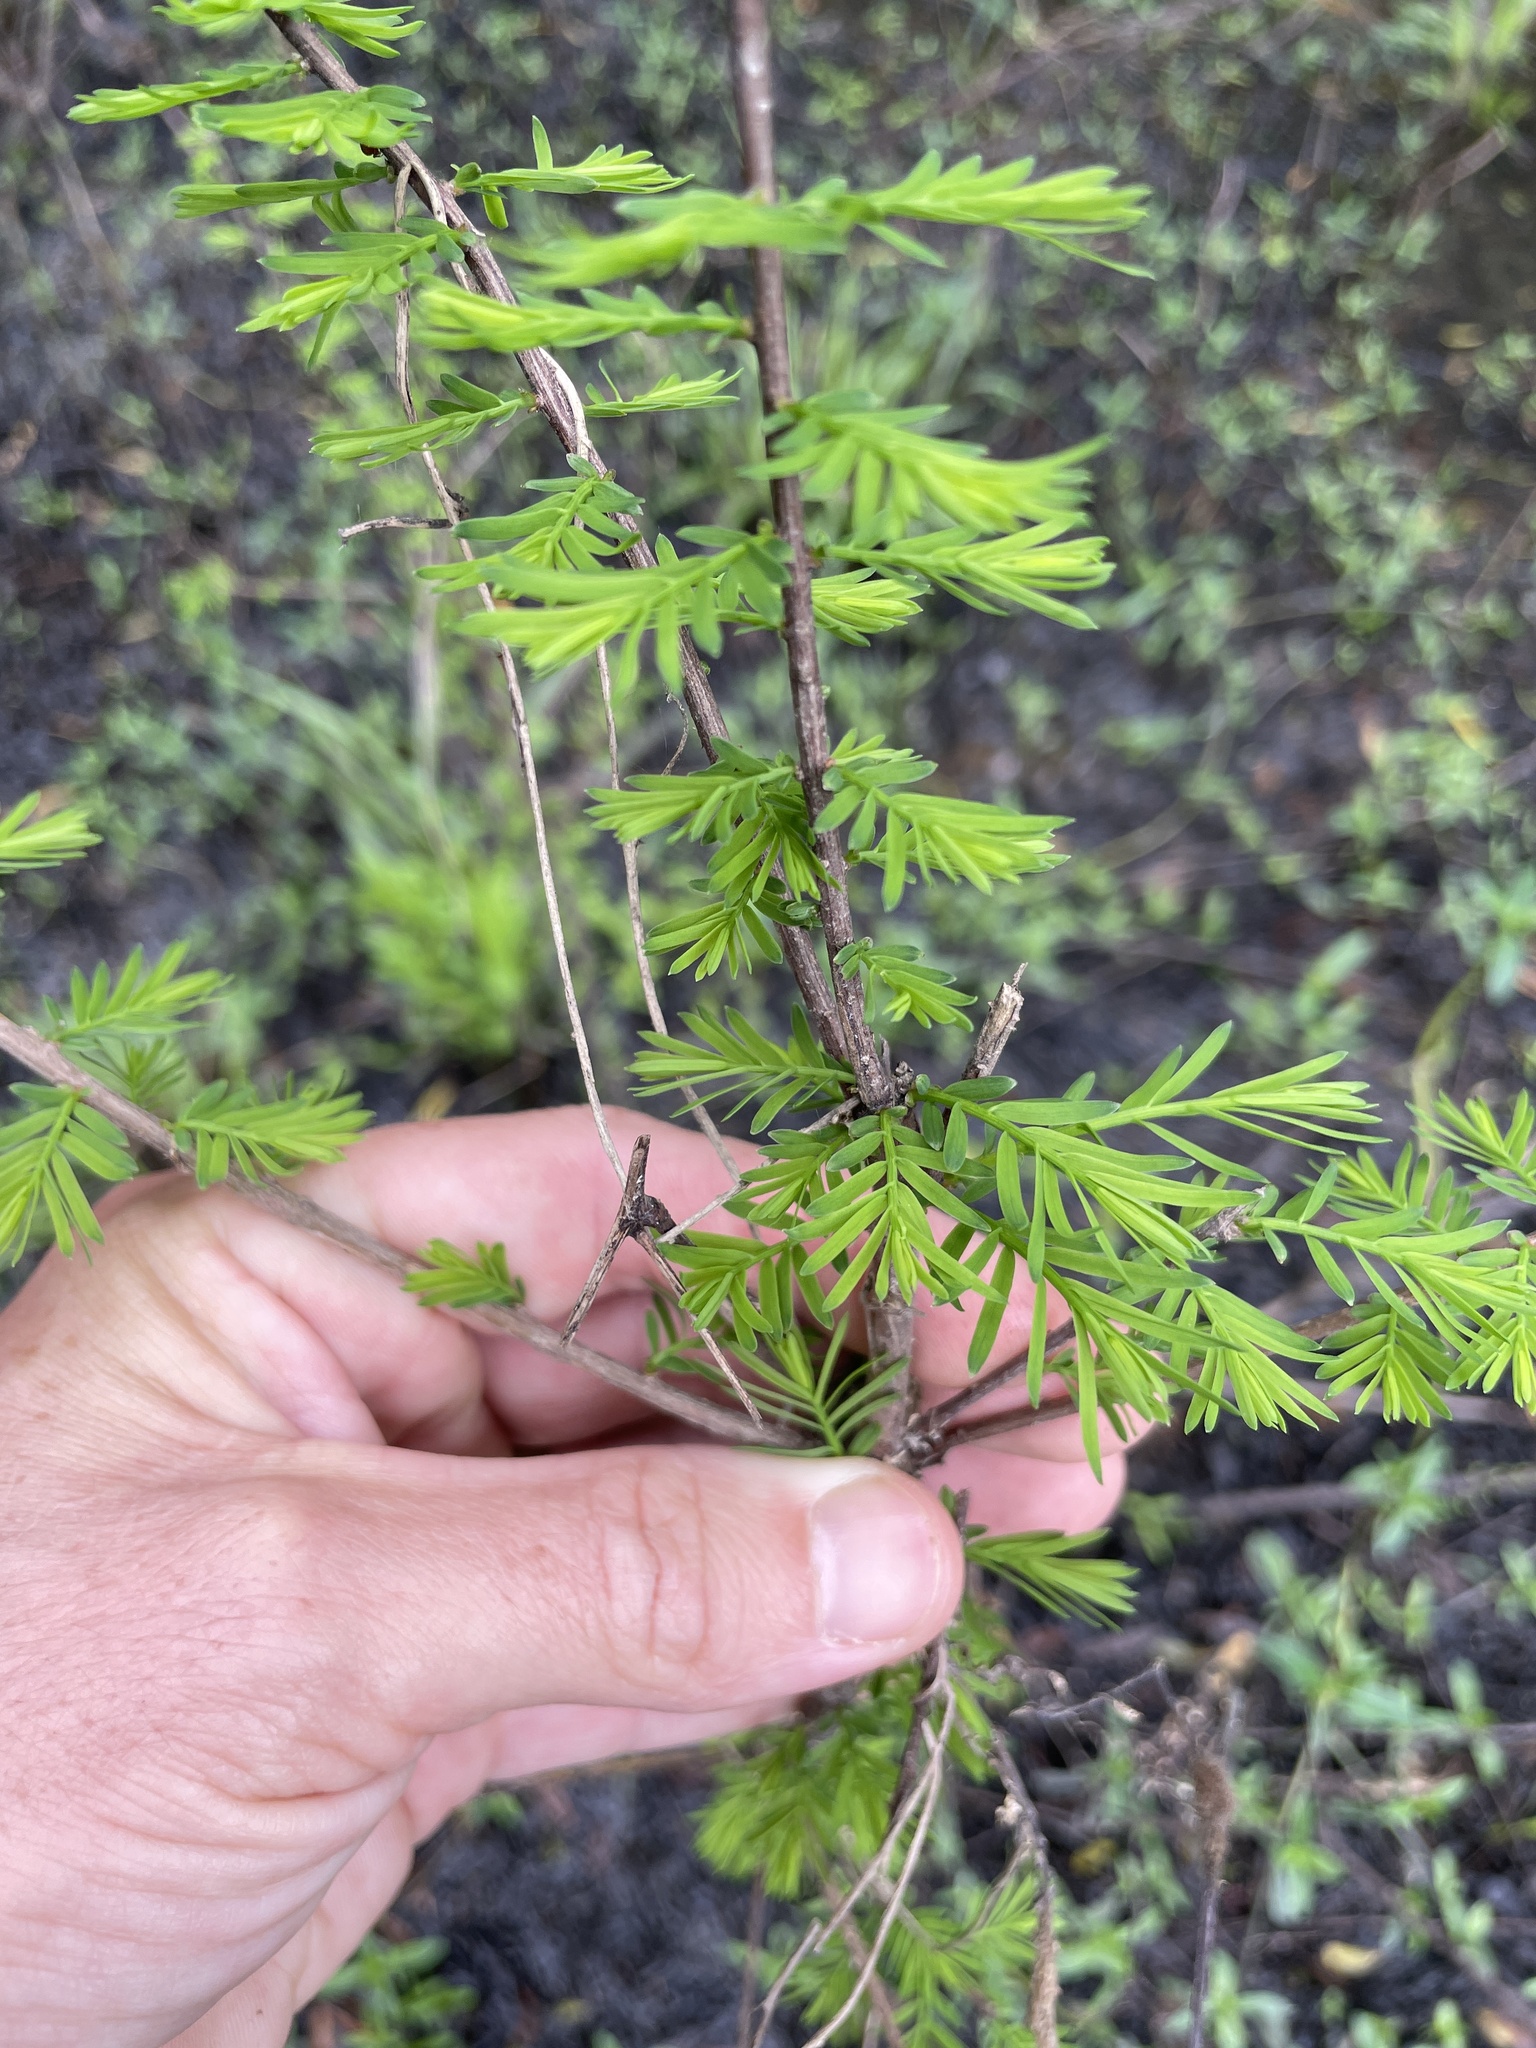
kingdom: Plantae
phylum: Tracheophyta
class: Pinopsida
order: Pinales
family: Cupressaceae
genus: Taxodium
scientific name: Taxodium distichum
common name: Bald cypress
